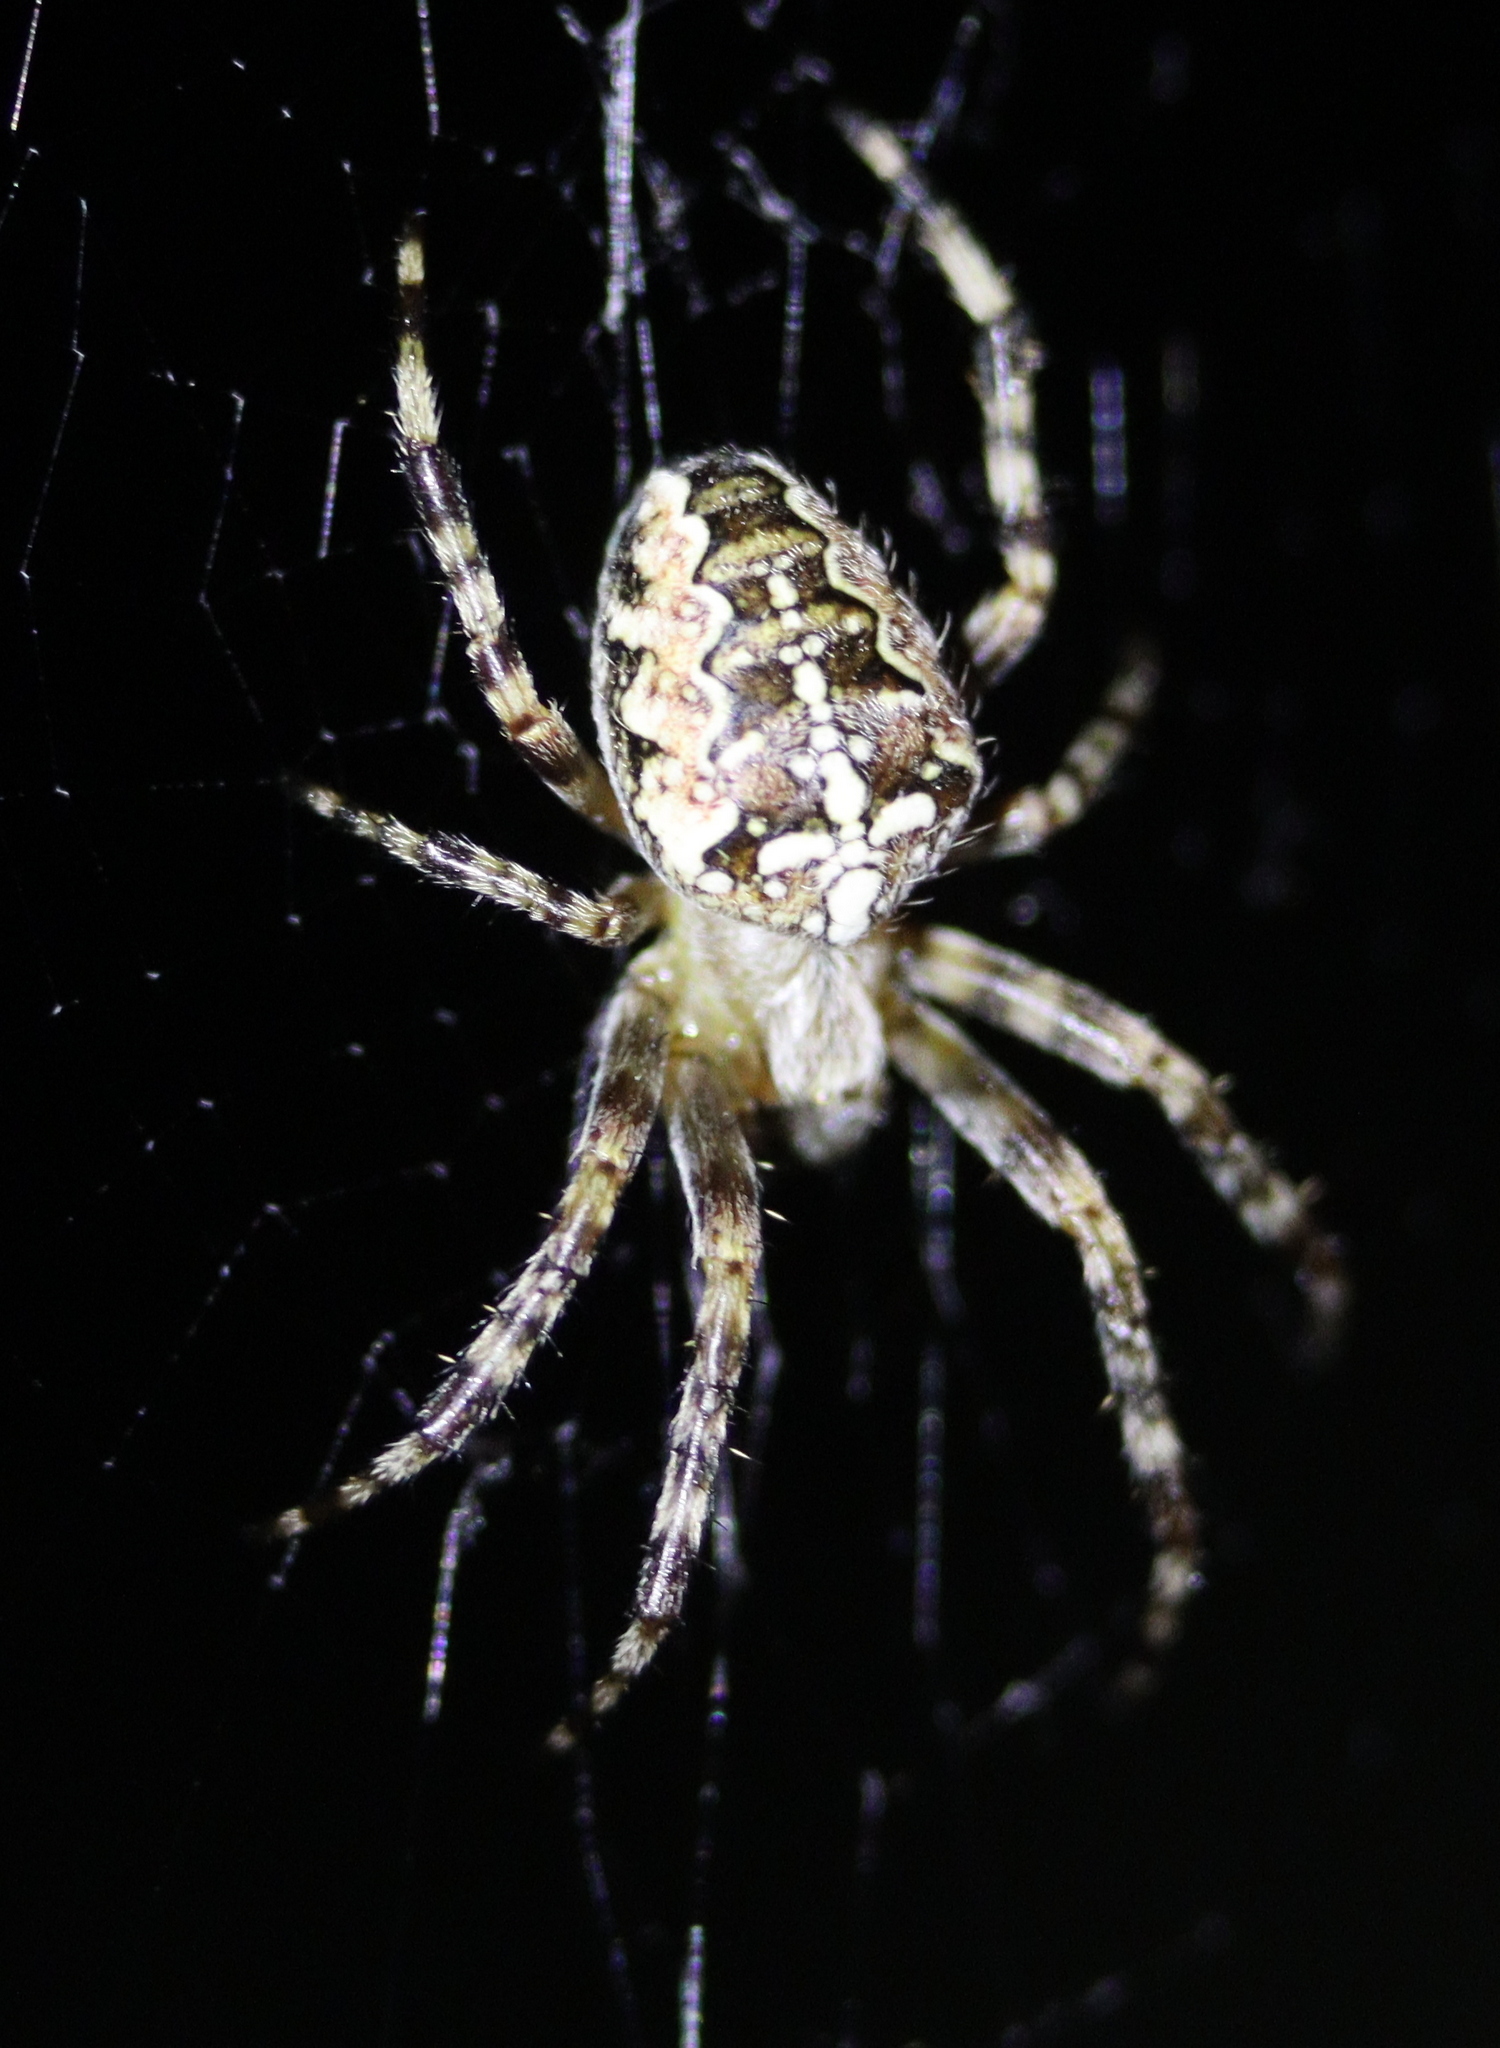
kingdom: Animalia
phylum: Arthropoda
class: Arachnida
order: Araneae
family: Araneidae
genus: Araneus
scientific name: Araneus diadematus
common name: Cross orbweaver
